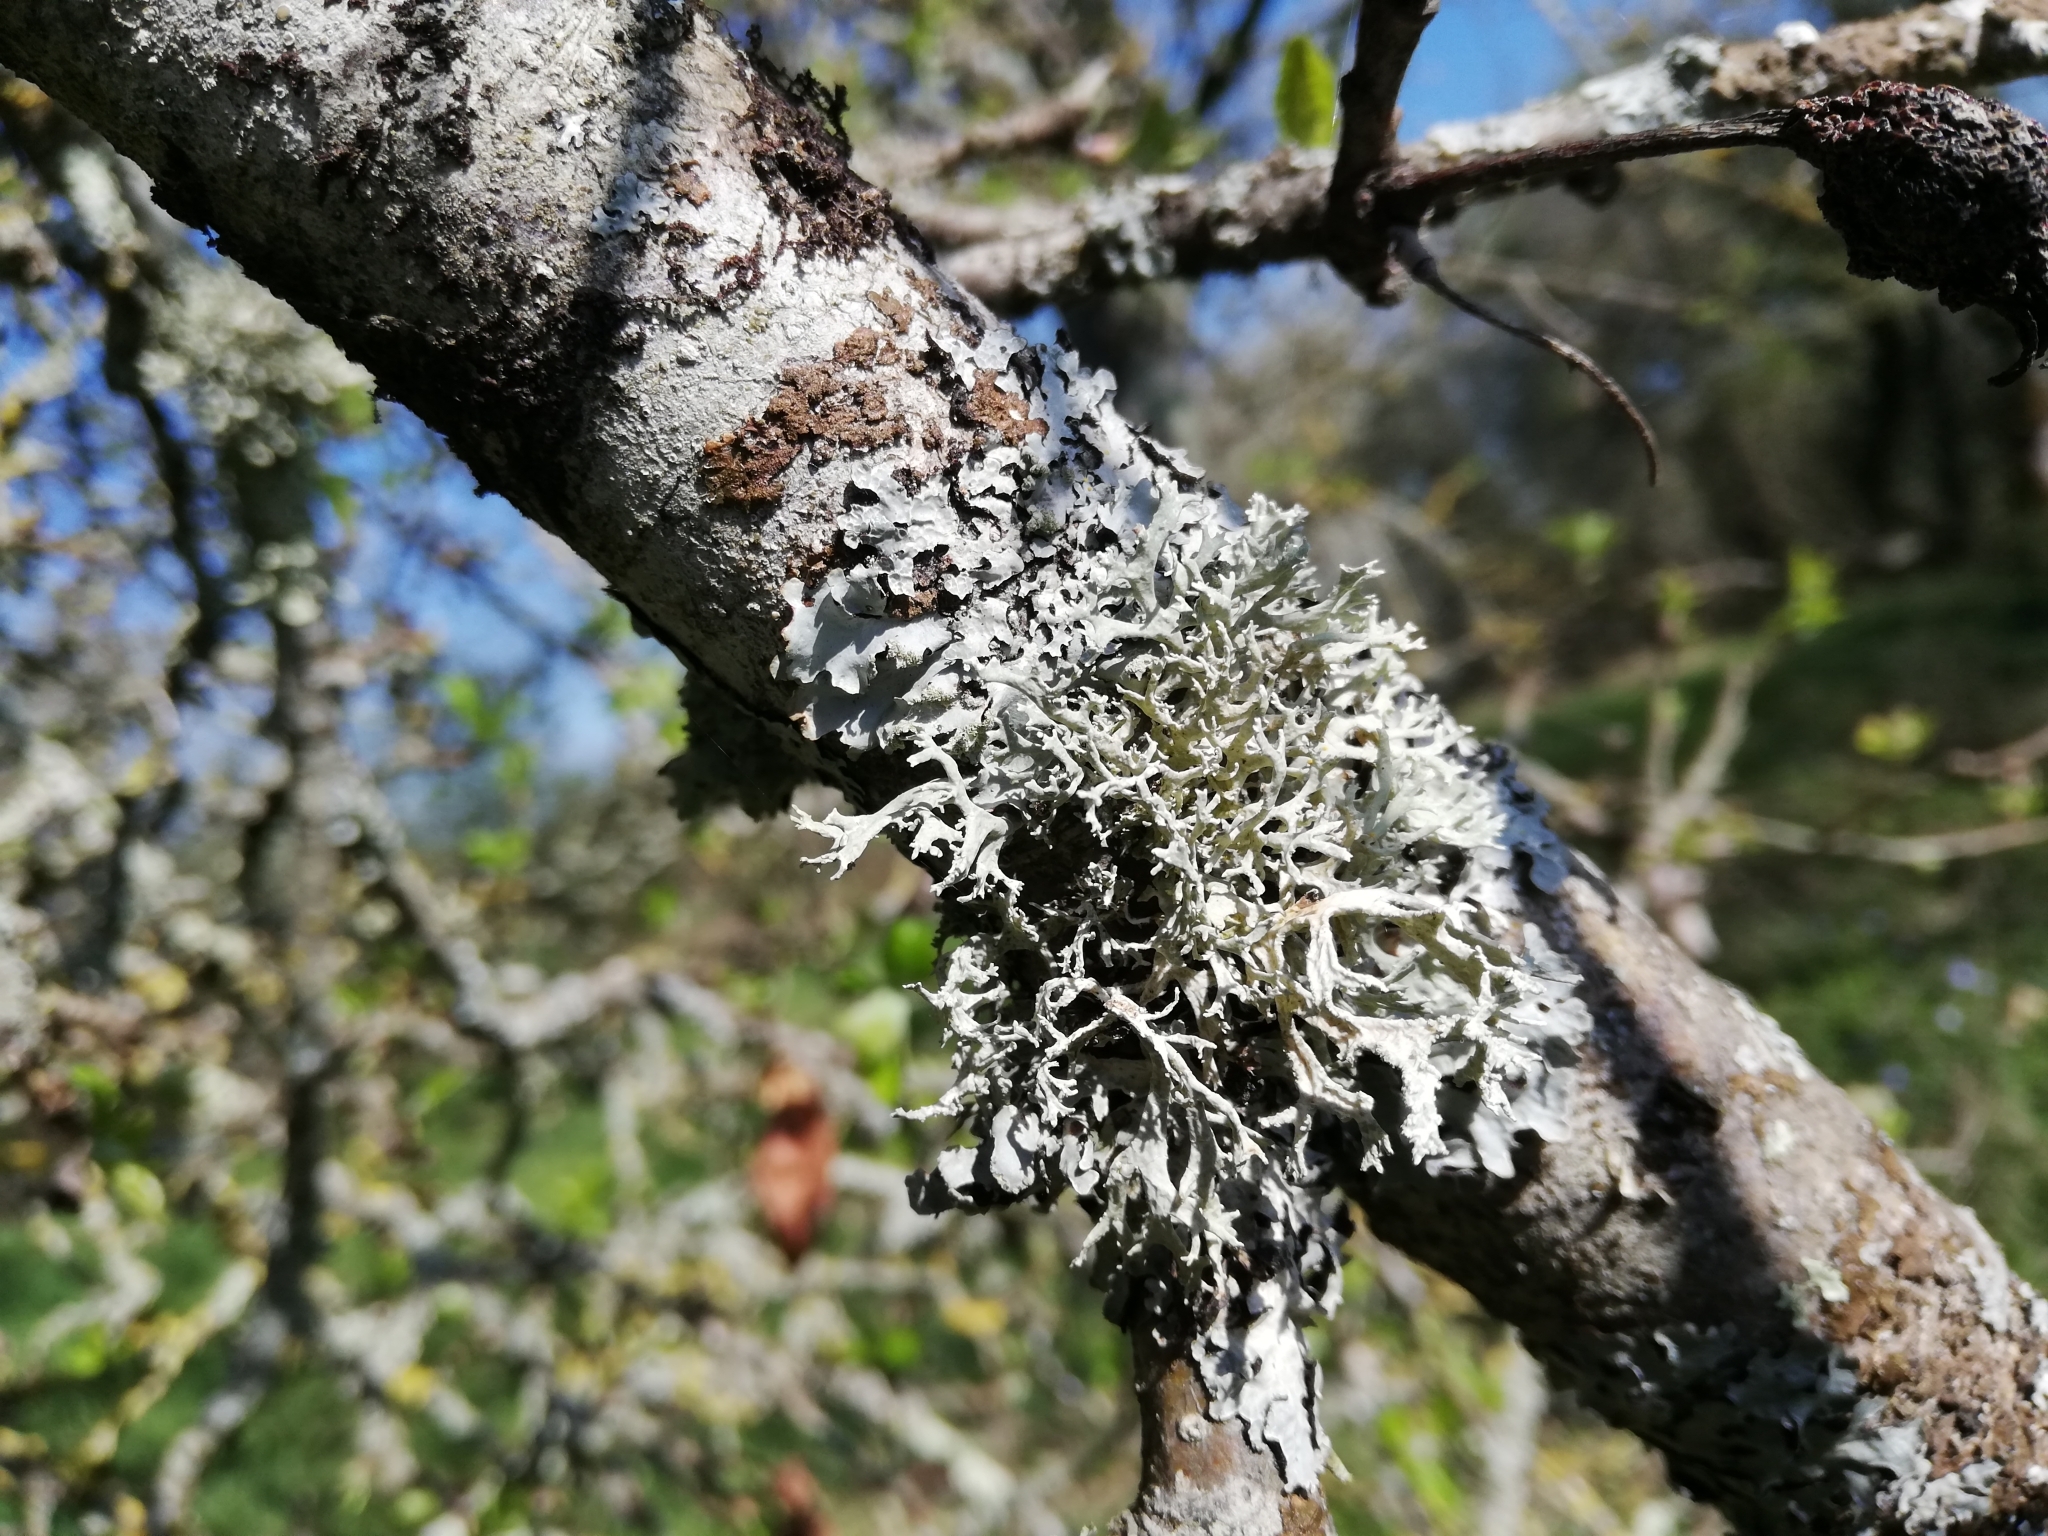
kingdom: Fungi
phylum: Ascomycota
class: Lecanoromycetes
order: Lecanorales
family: Parmeliaceae
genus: Evernia
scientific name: Evernia prunastri
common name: Oak moss
